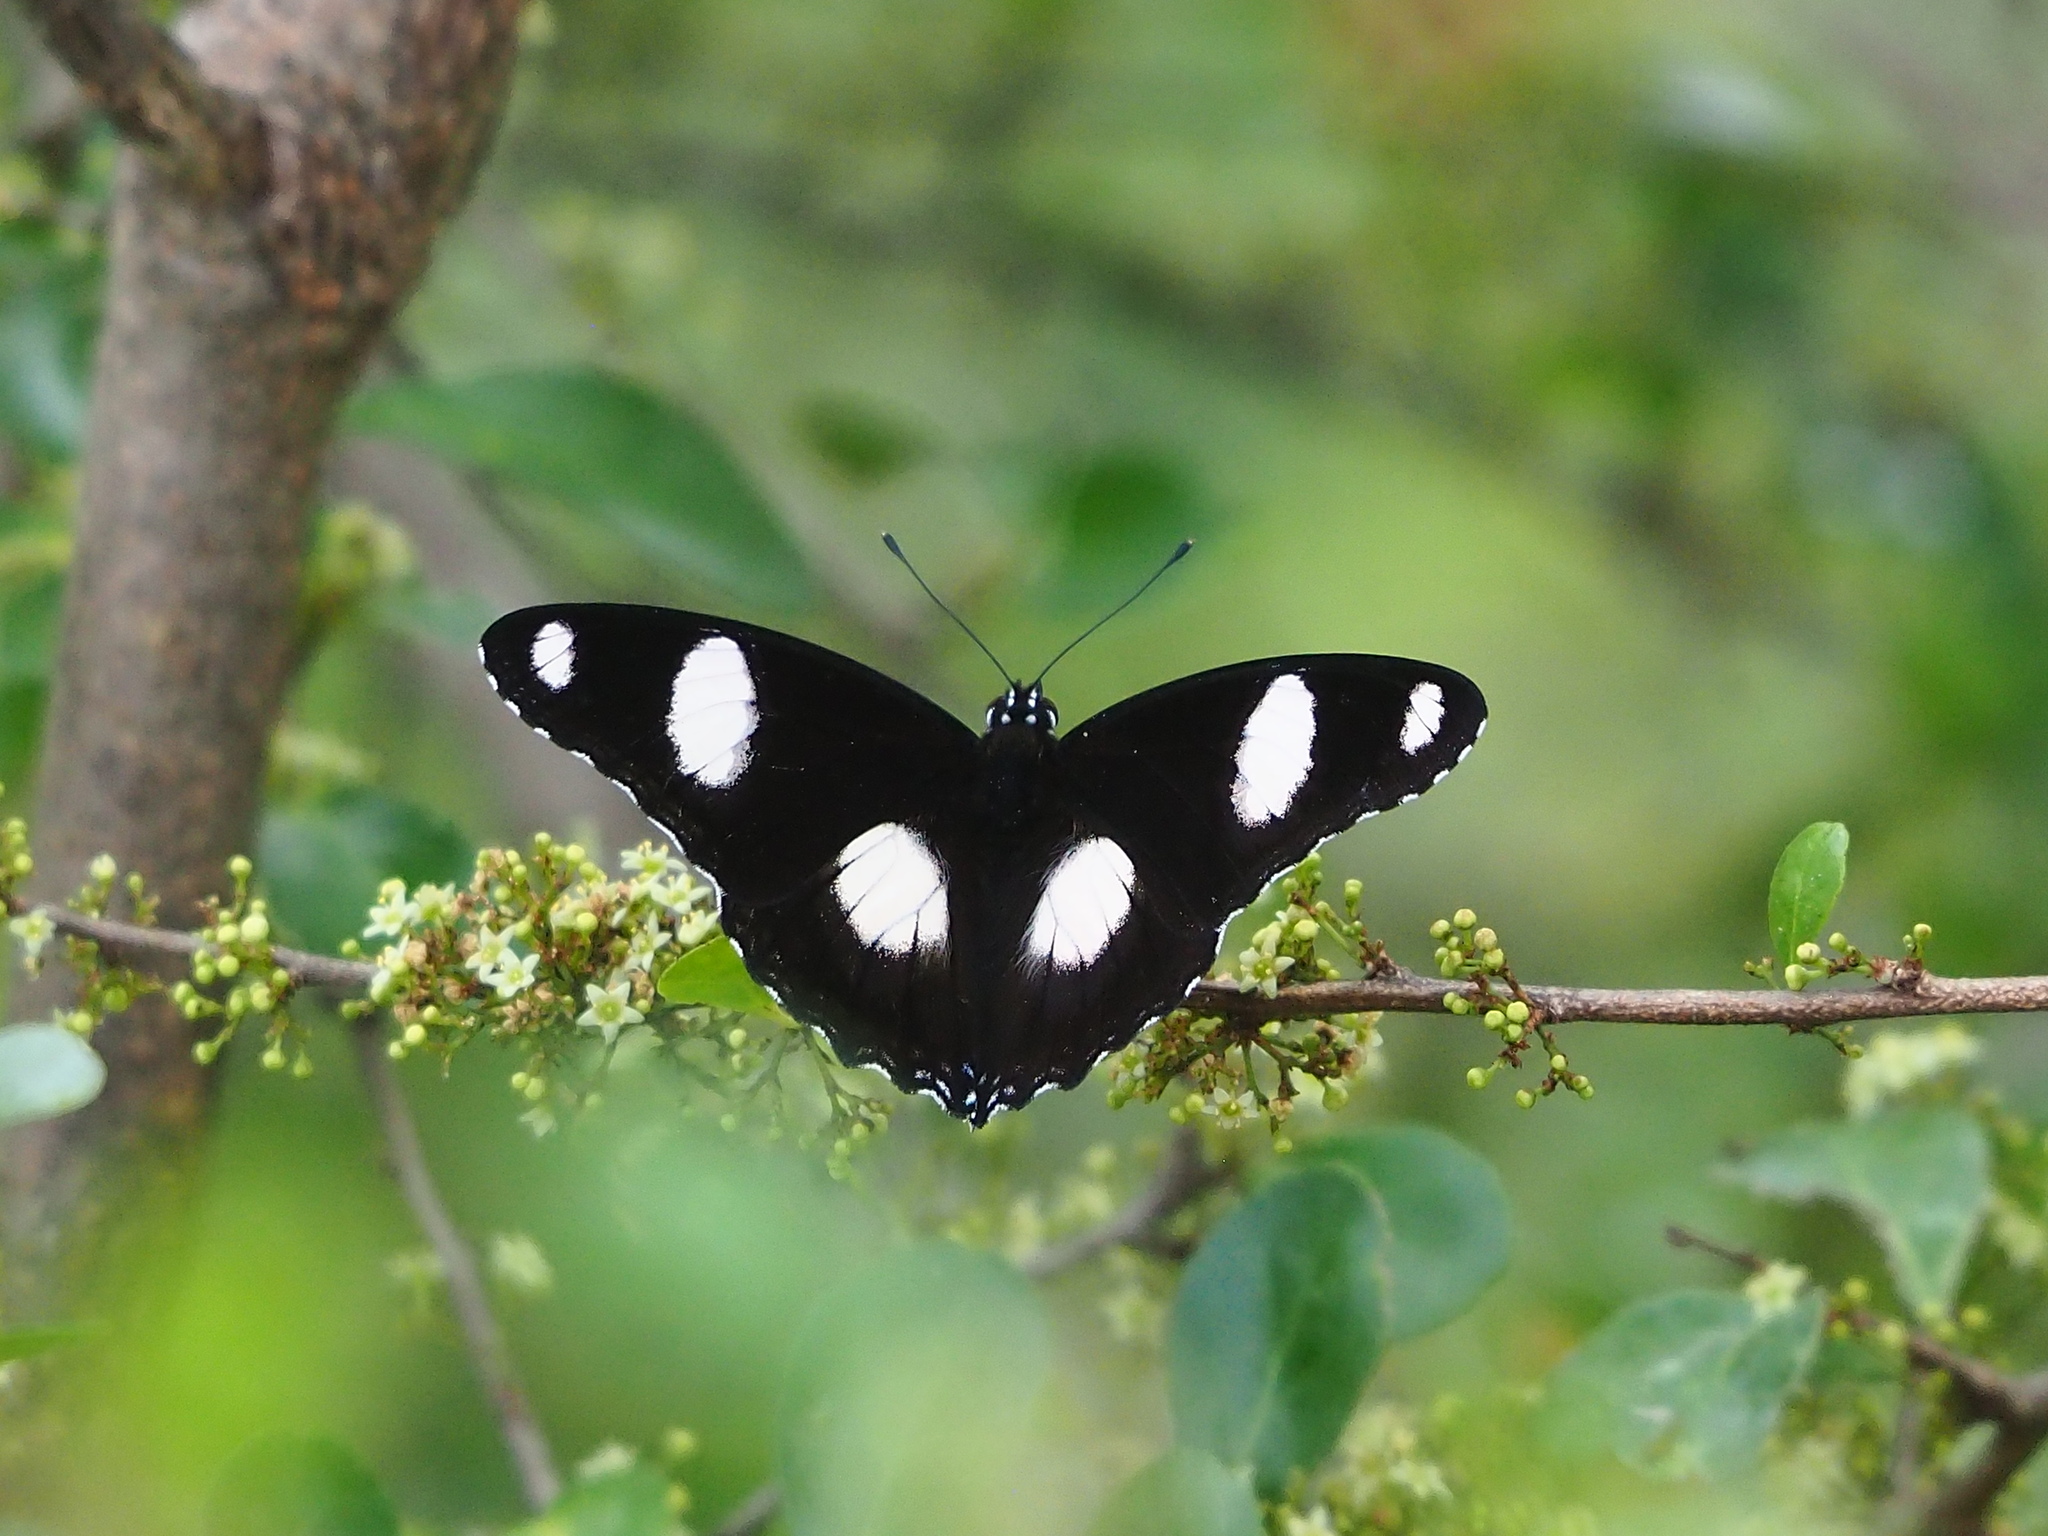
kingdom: Animalia
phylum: Arthropoda
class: Insecta
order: Lepidoptera
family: Nymphalidae
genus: Hypolimnas
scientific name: Hypolimnas misippus
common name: False plain tiger
